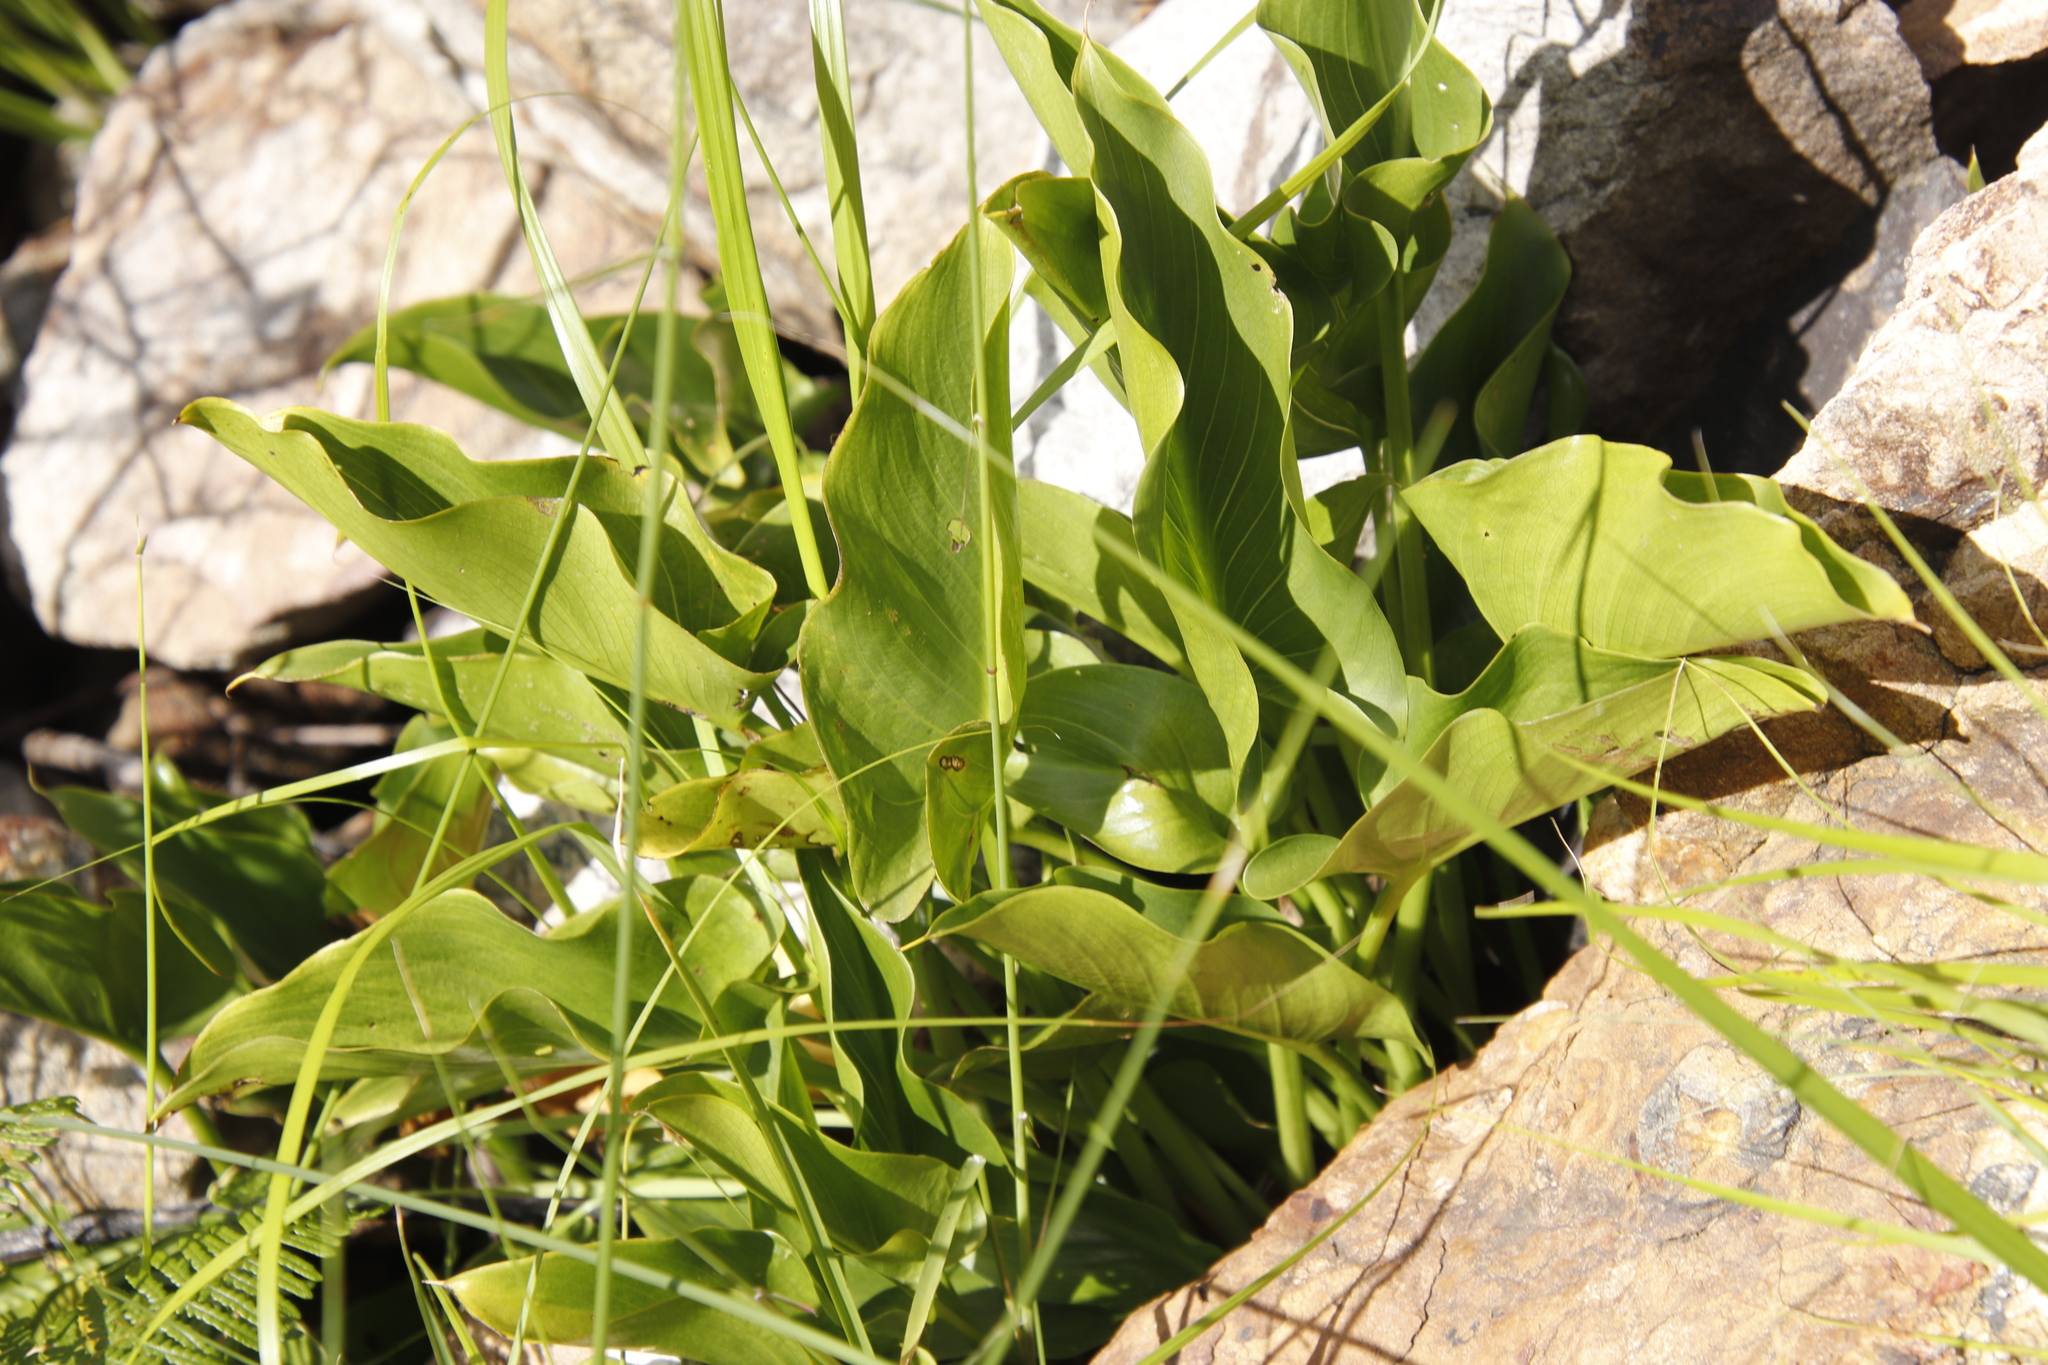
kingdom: Plantae
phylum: Tracheophyta
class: Liliopsida
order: Alismatales
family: Araceae
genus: Zantedeschia
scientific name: Zantedeschia aethiopica
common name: Altar-lily
